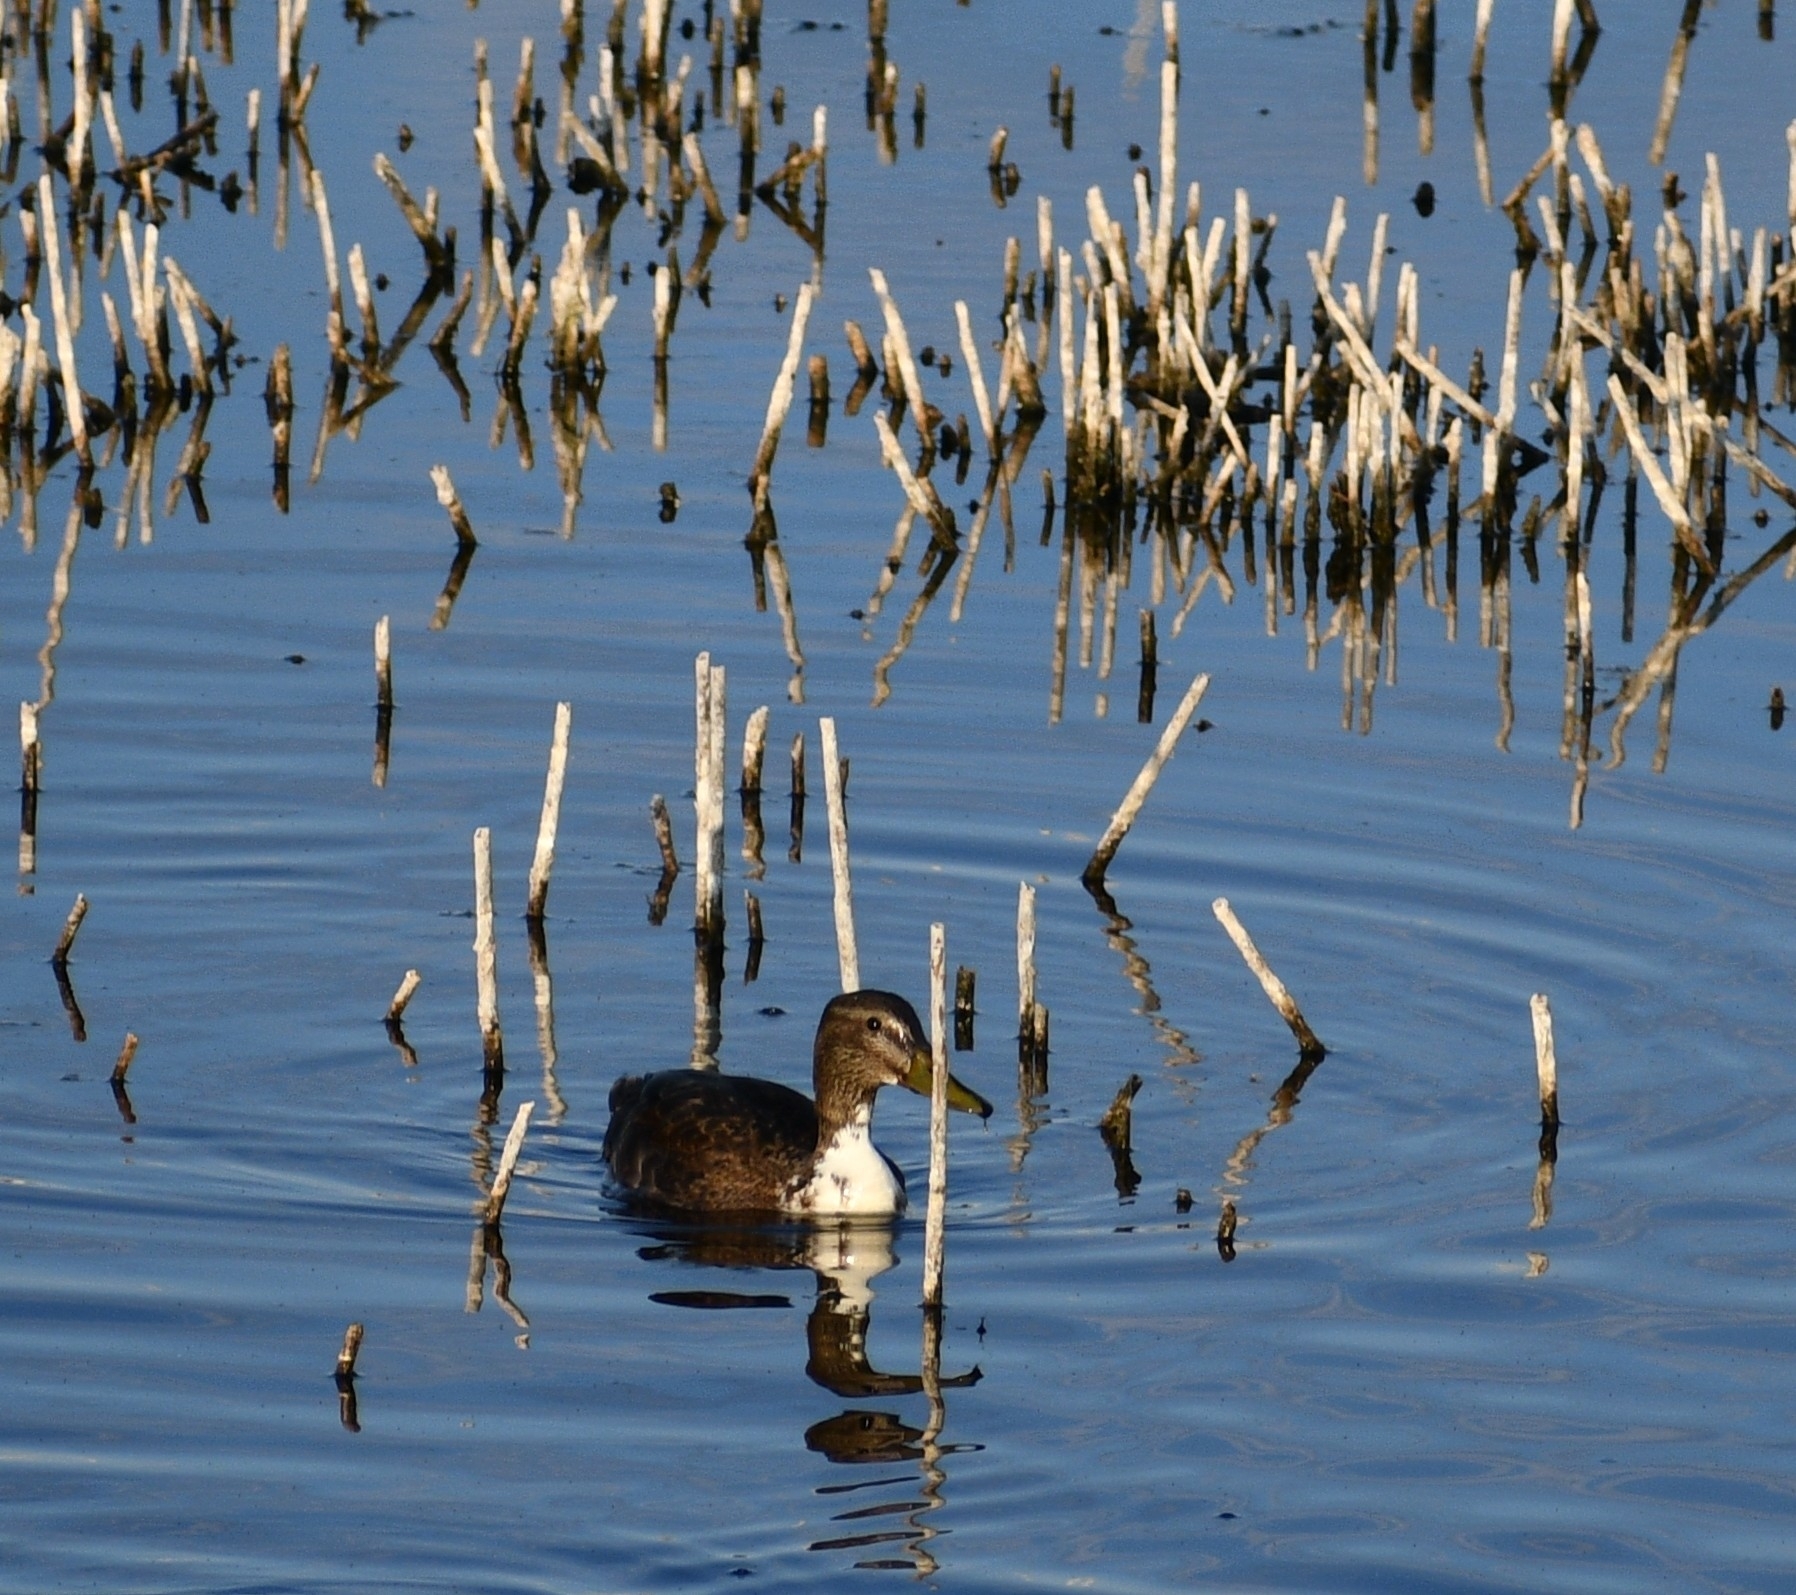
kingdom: Animalia
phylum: Chordata
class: Aves
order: Anseriformes
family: Anatidae
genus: Anas
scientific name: Anas platyrhynchos
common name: Mallard
